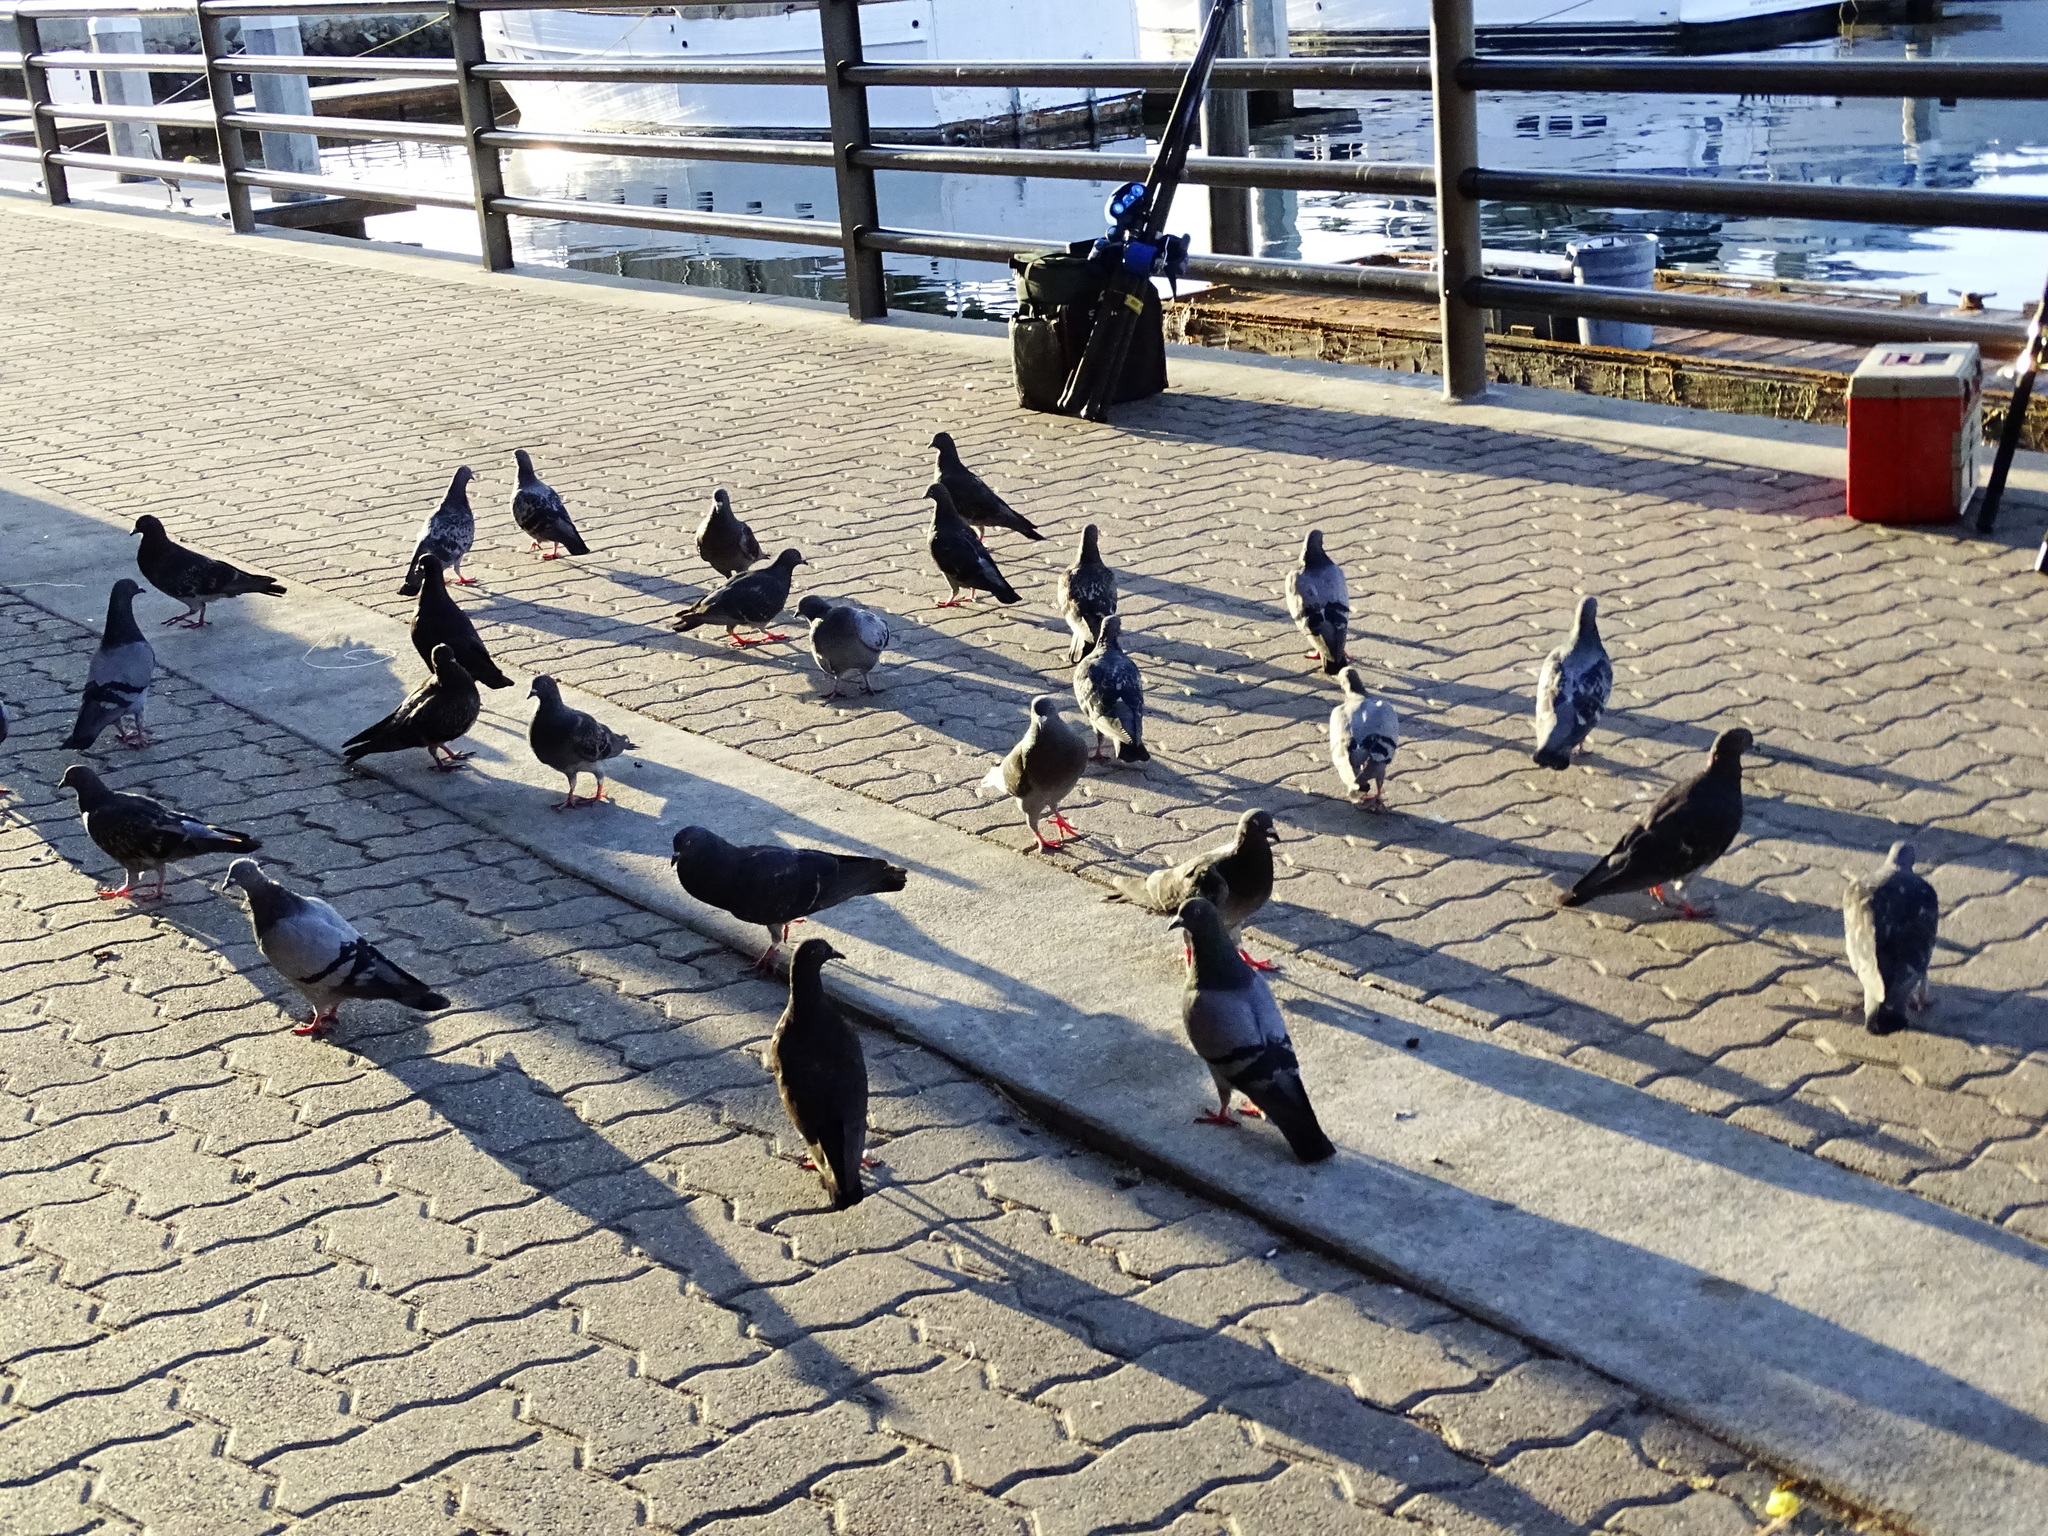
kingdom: Animalia
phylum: Chordata
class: Aves
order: Columbiformes
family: Columbidae
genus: Columba
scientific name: Columba livia
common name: Rock pigeon
